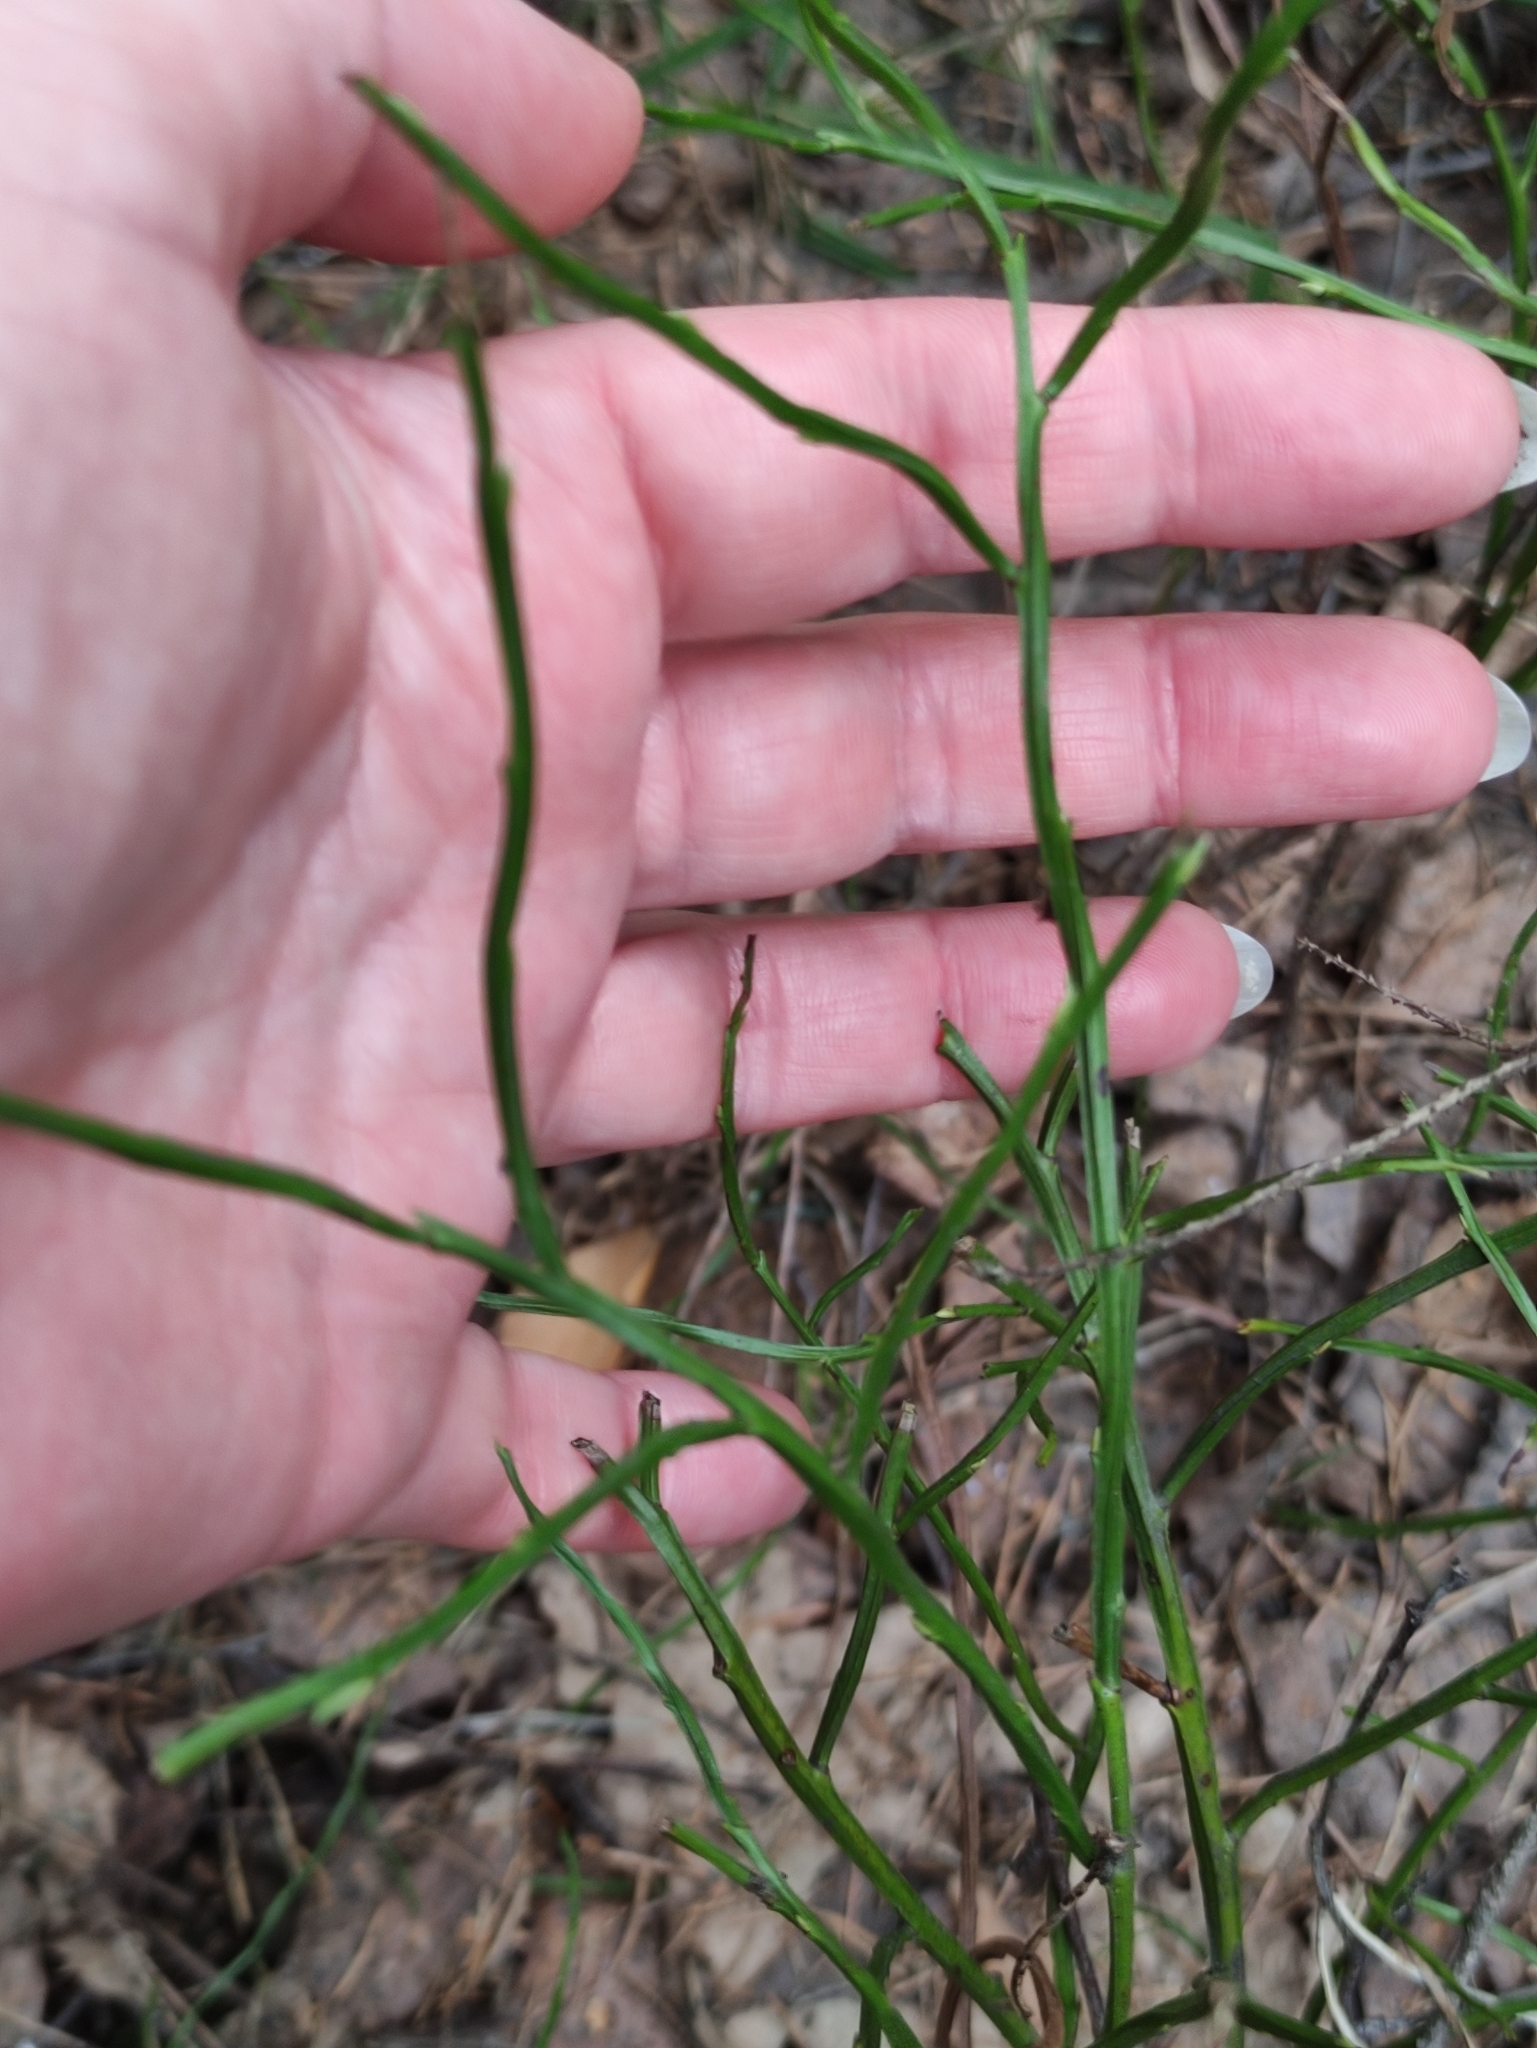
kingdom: Plantae
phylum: Tracheophyta
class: Magnoliopsida
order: Ericales
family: Ericaceae
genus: Vaccinium
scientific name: Vaccinium myrtillus
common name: Bilberry
